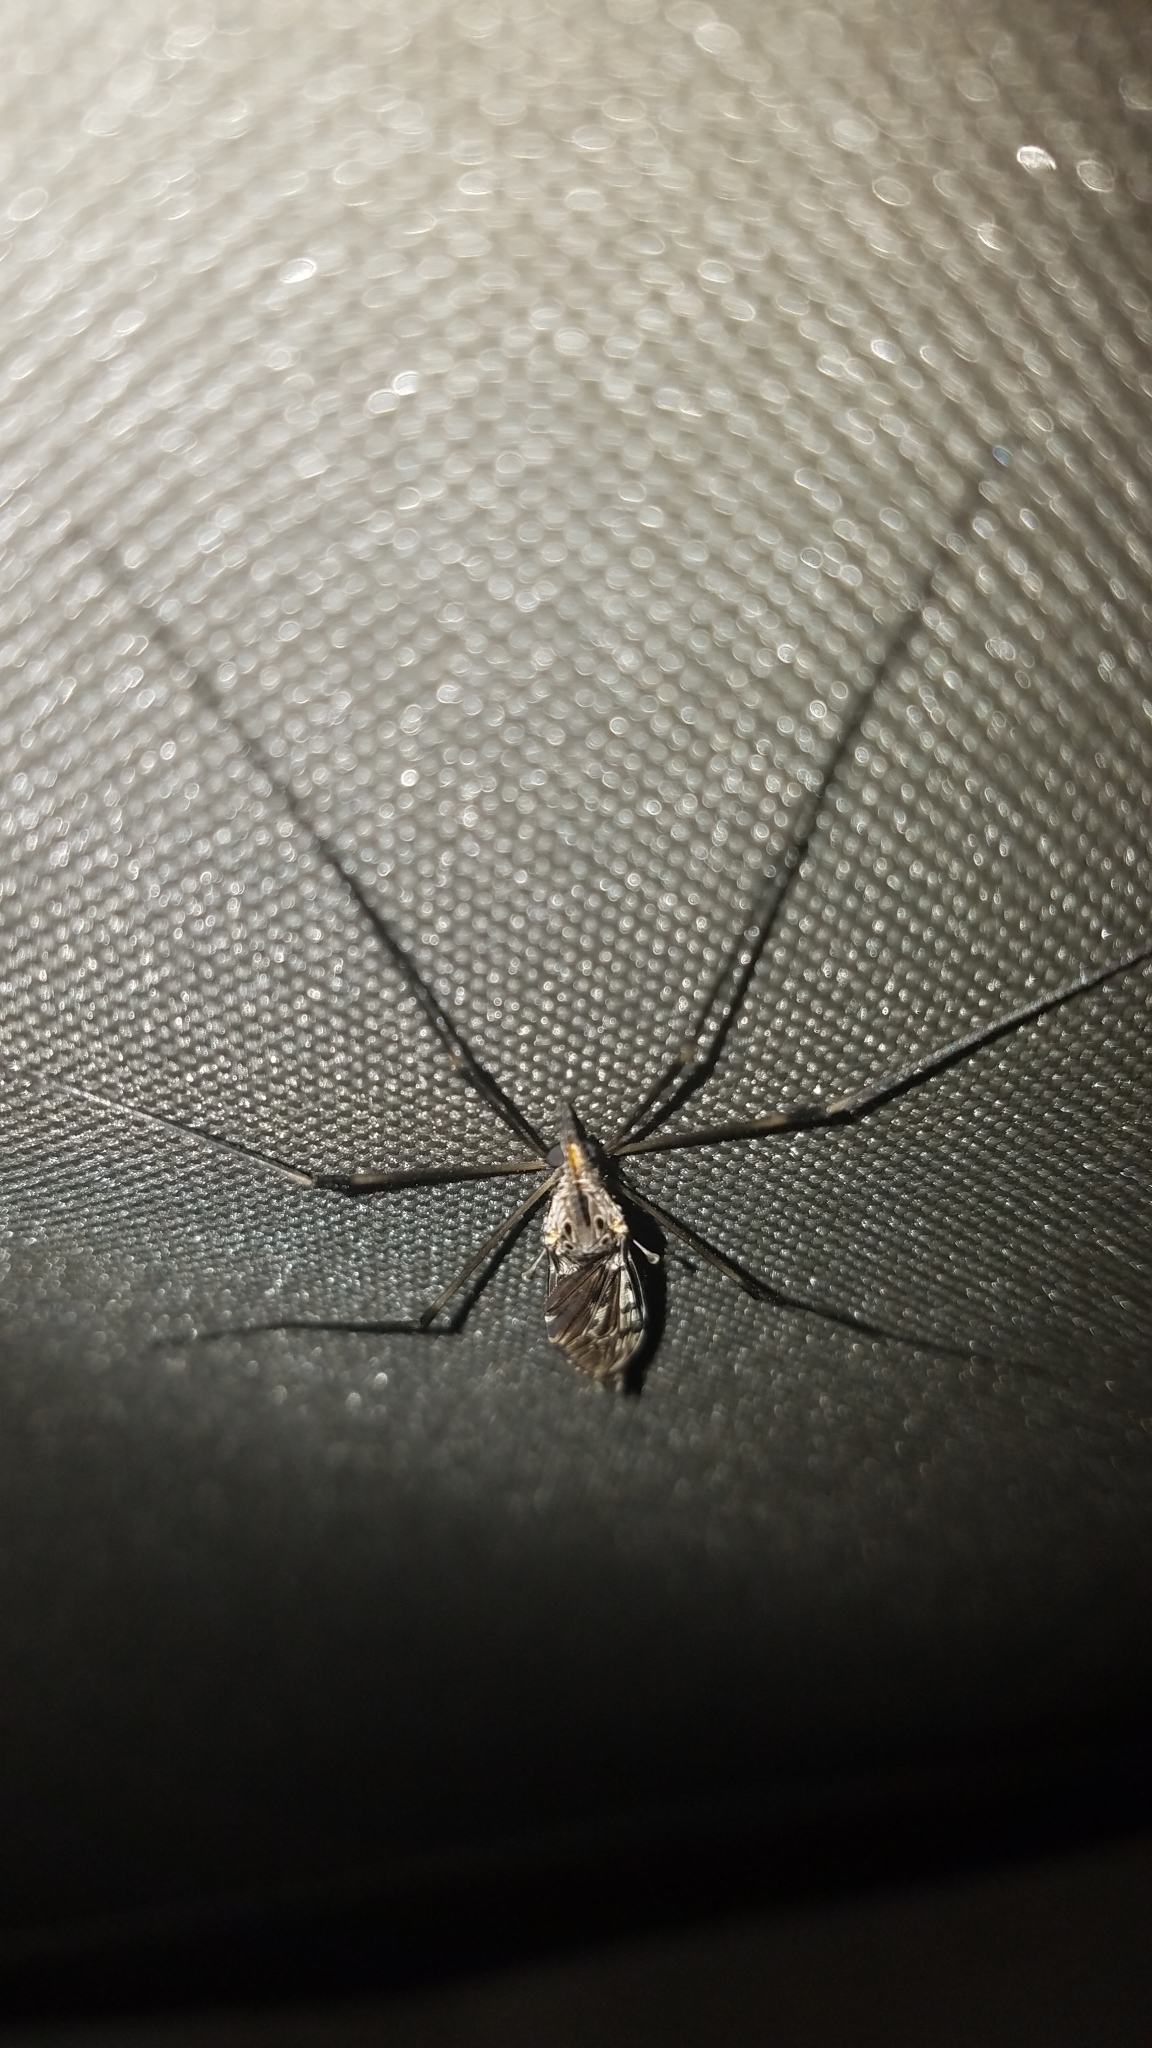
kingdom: Animalia
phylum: Arthropoda
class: Insecta
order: Diptera
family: Tipulidae
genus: Tipula
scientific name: Tipula abdominalis
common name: Giant crane fly
